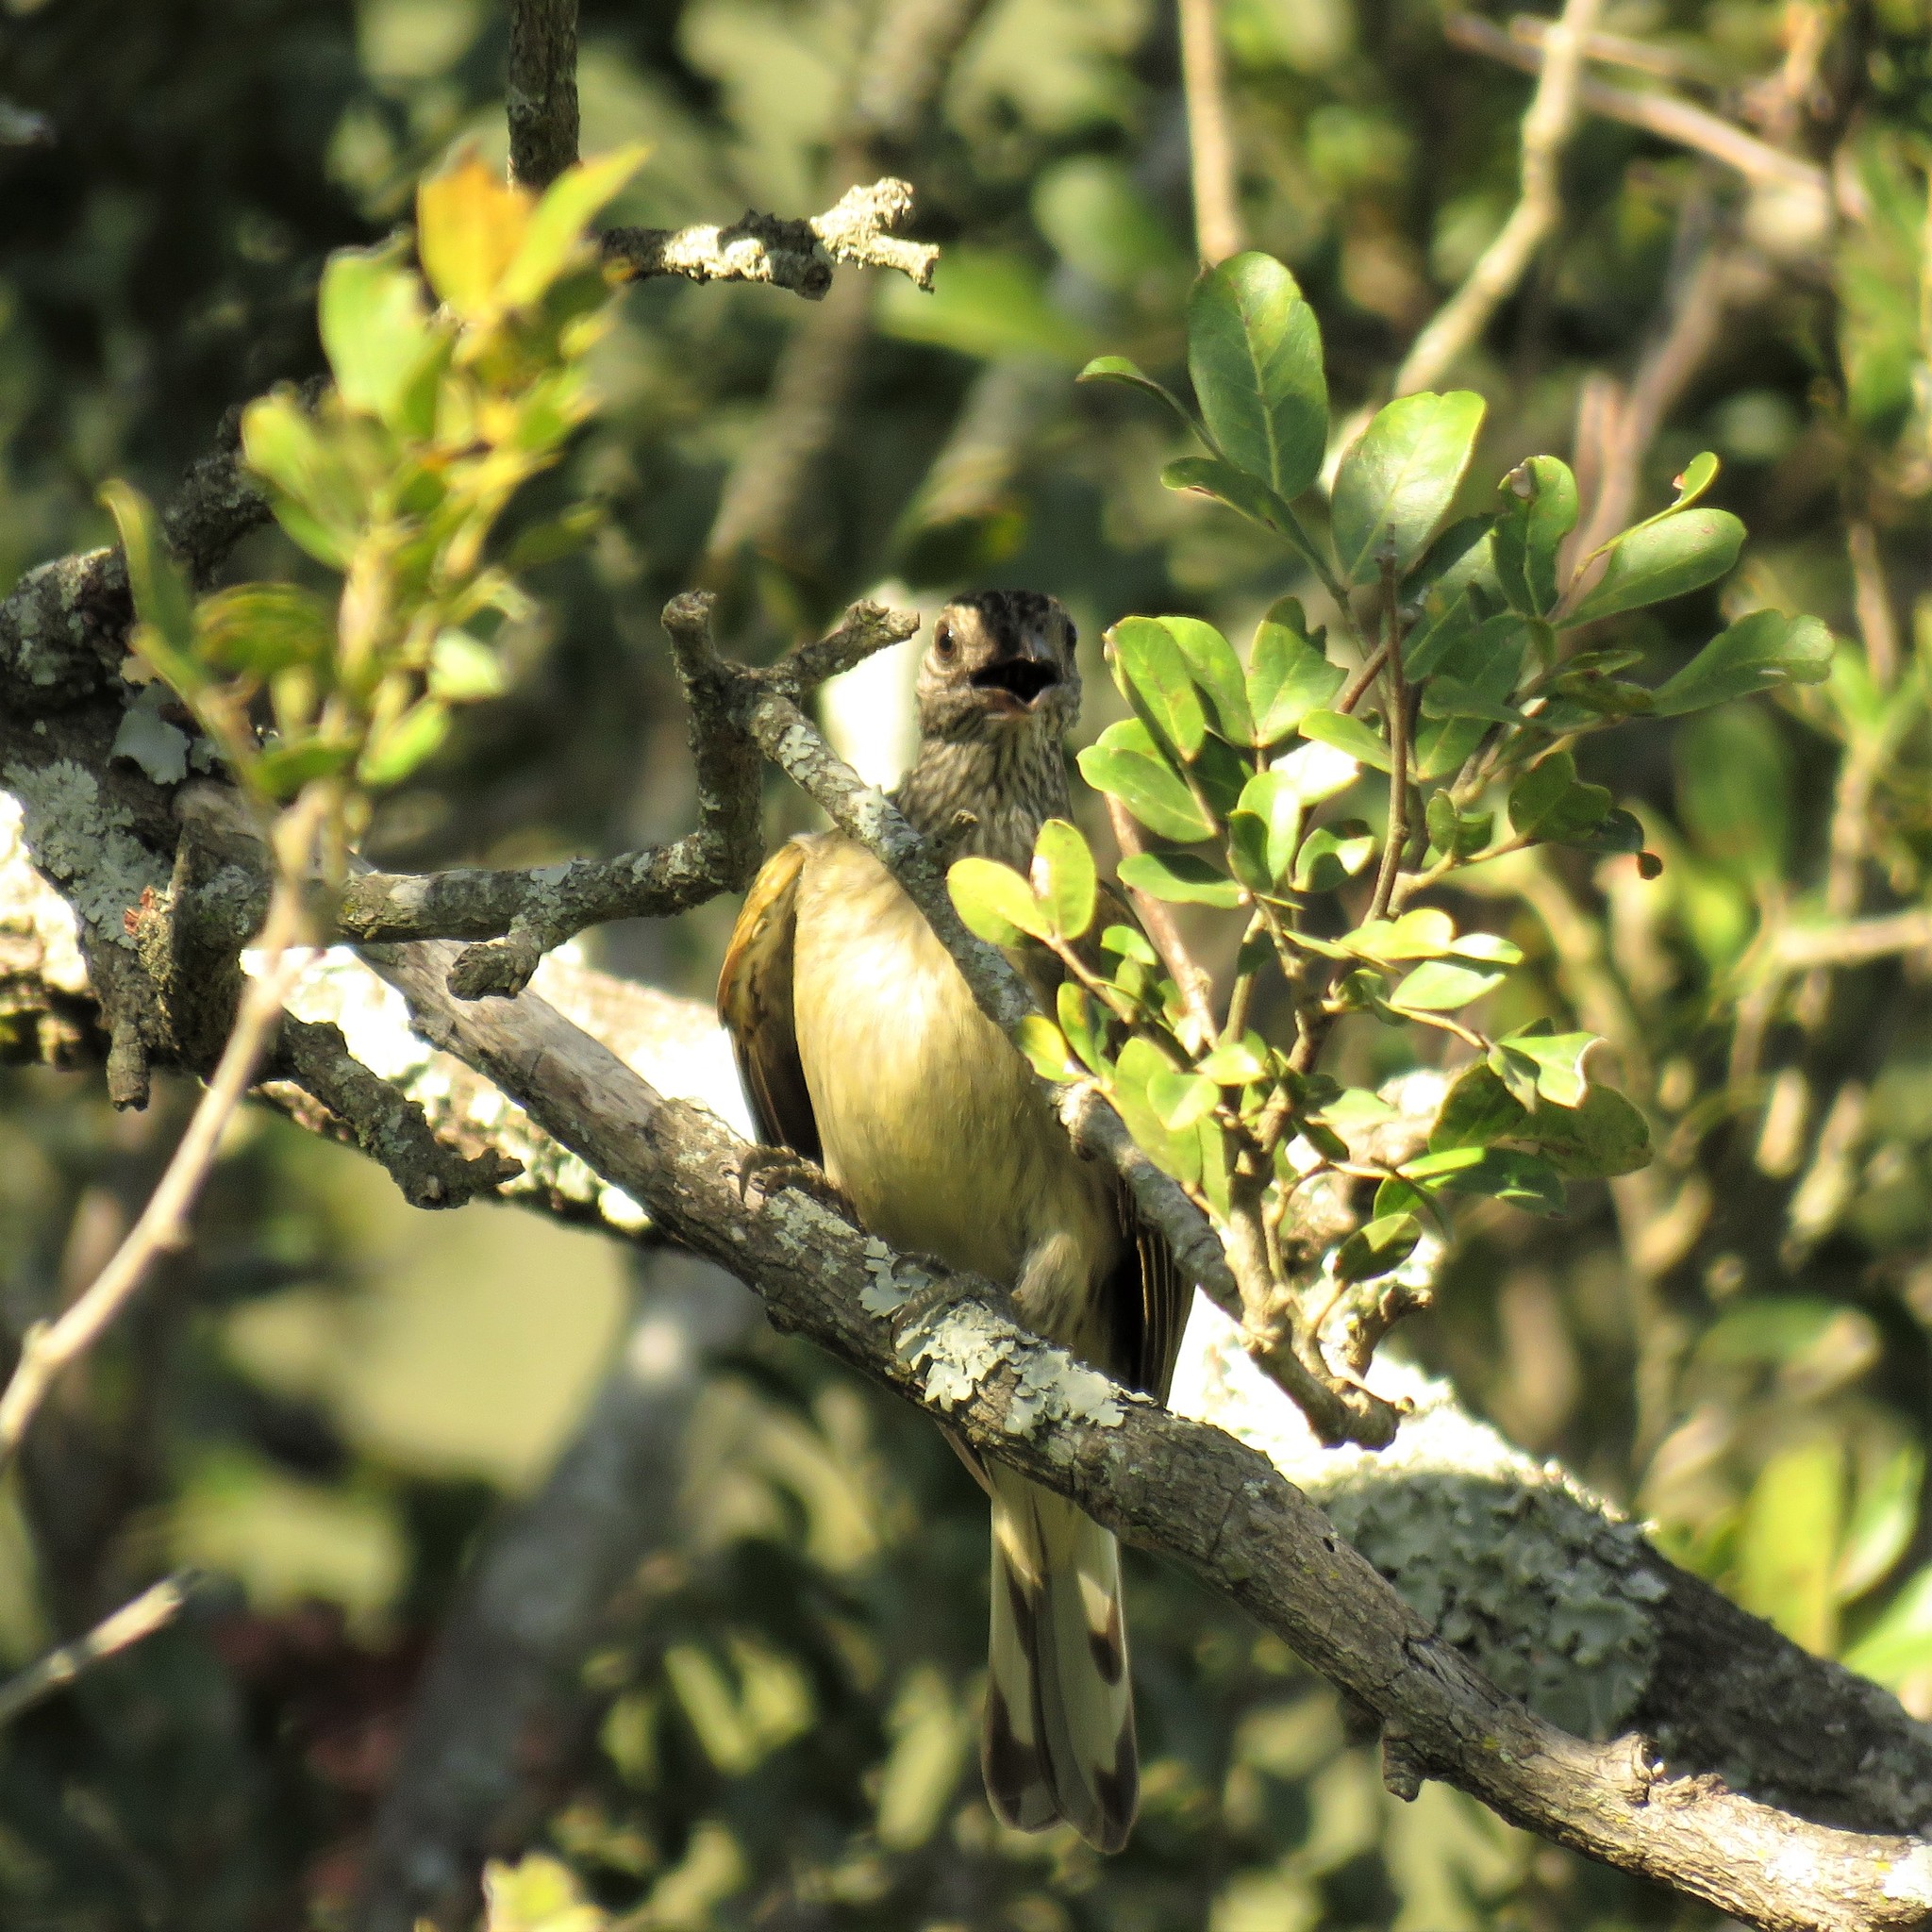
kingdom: Animalia
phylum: Chordata
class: Aves
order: Piciformes
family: Indicatoridae
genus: Indicator
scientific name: Indicator variegatus
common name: Scaly-throated honeyguide
